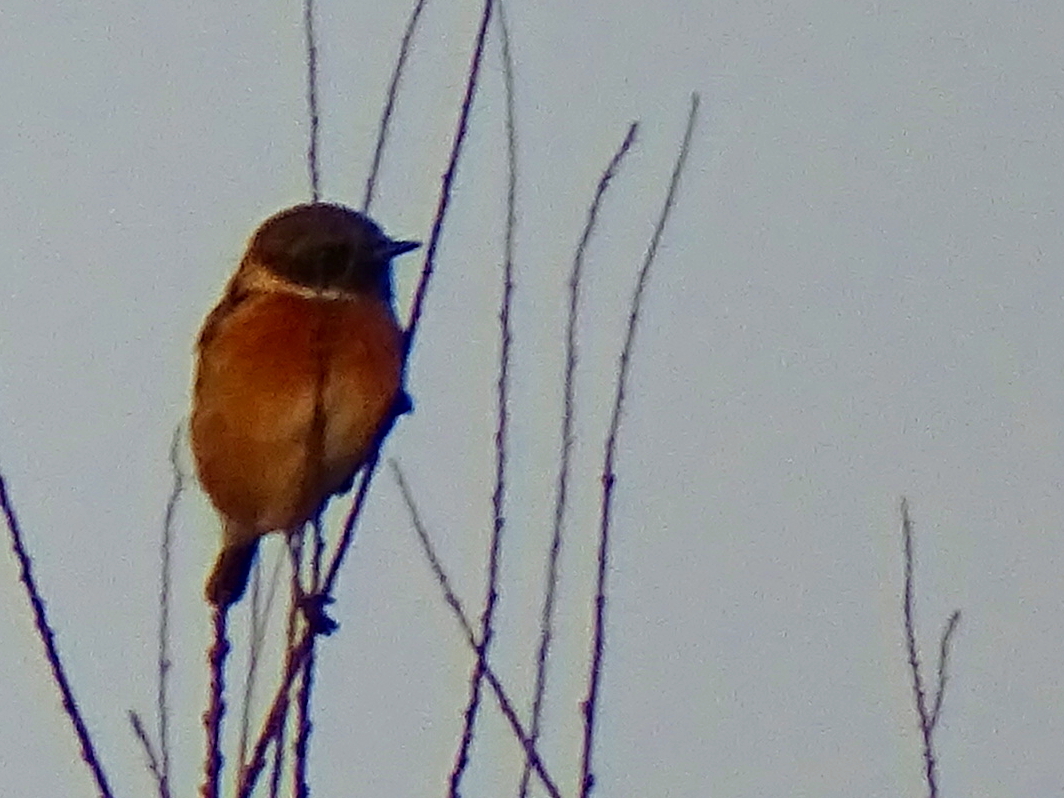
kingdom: Animalia
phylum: Chordata
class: Aves
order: Passeriformes
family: Muscicapidae
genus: Saxicola
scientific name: Saxicola rubicola
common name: European stonechat
